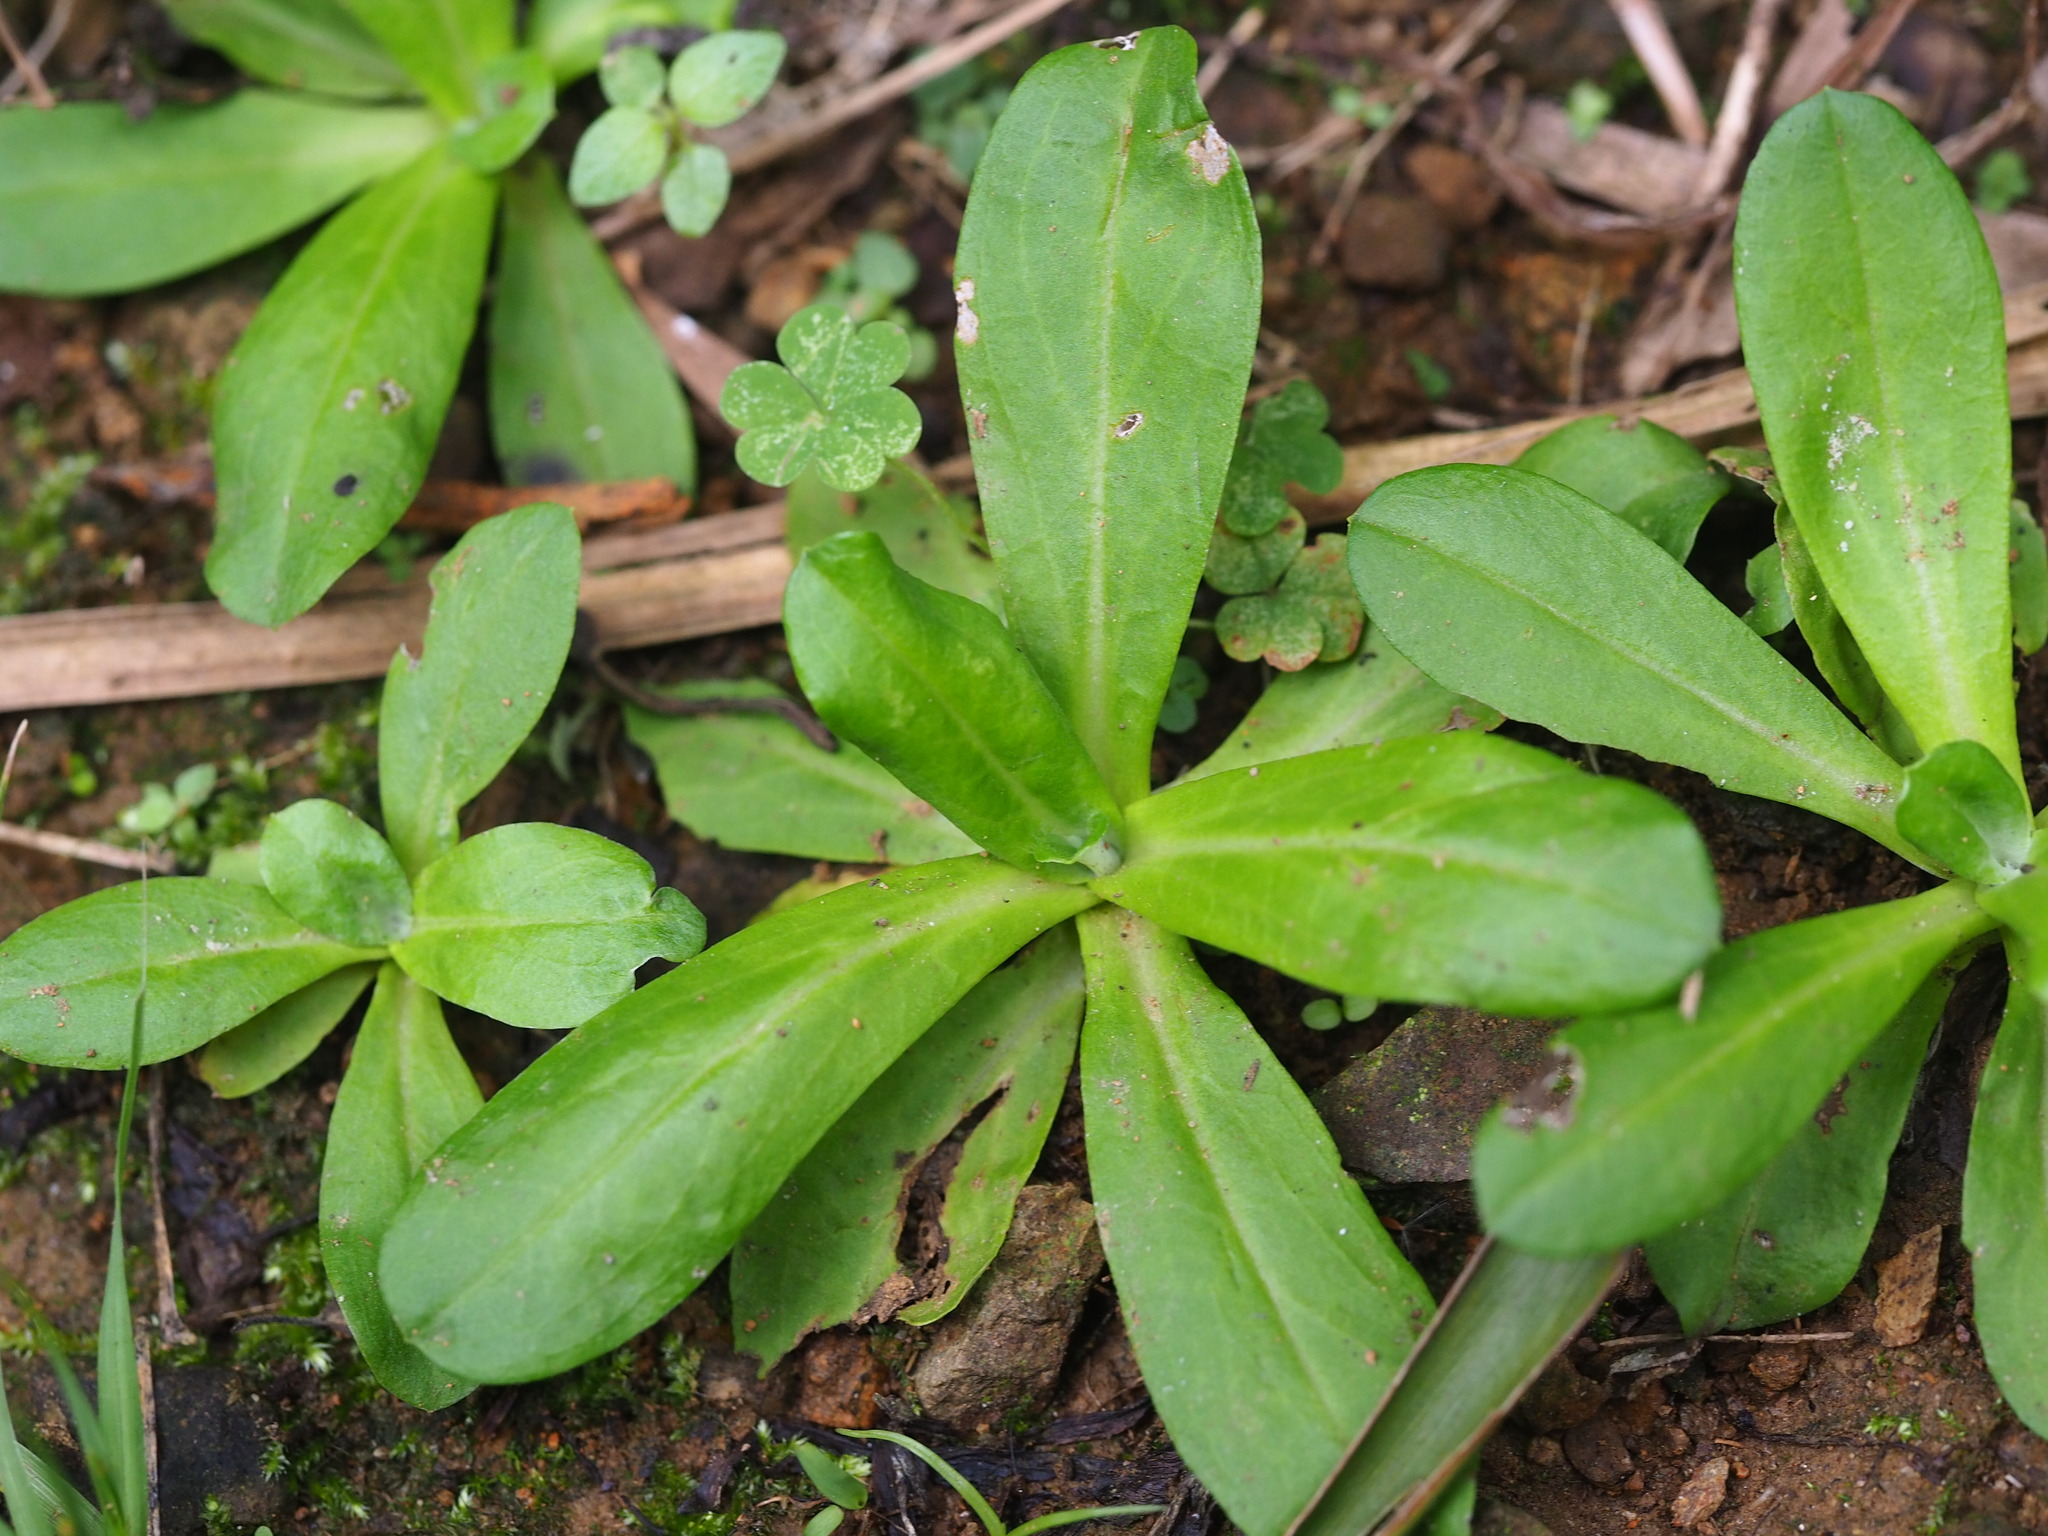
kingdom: Plantae
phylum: Tracheophyta
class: Magnoliopsida
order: Asterales
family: Asteraceae
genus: Gamochaeta
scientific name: Gamochaeta americana
